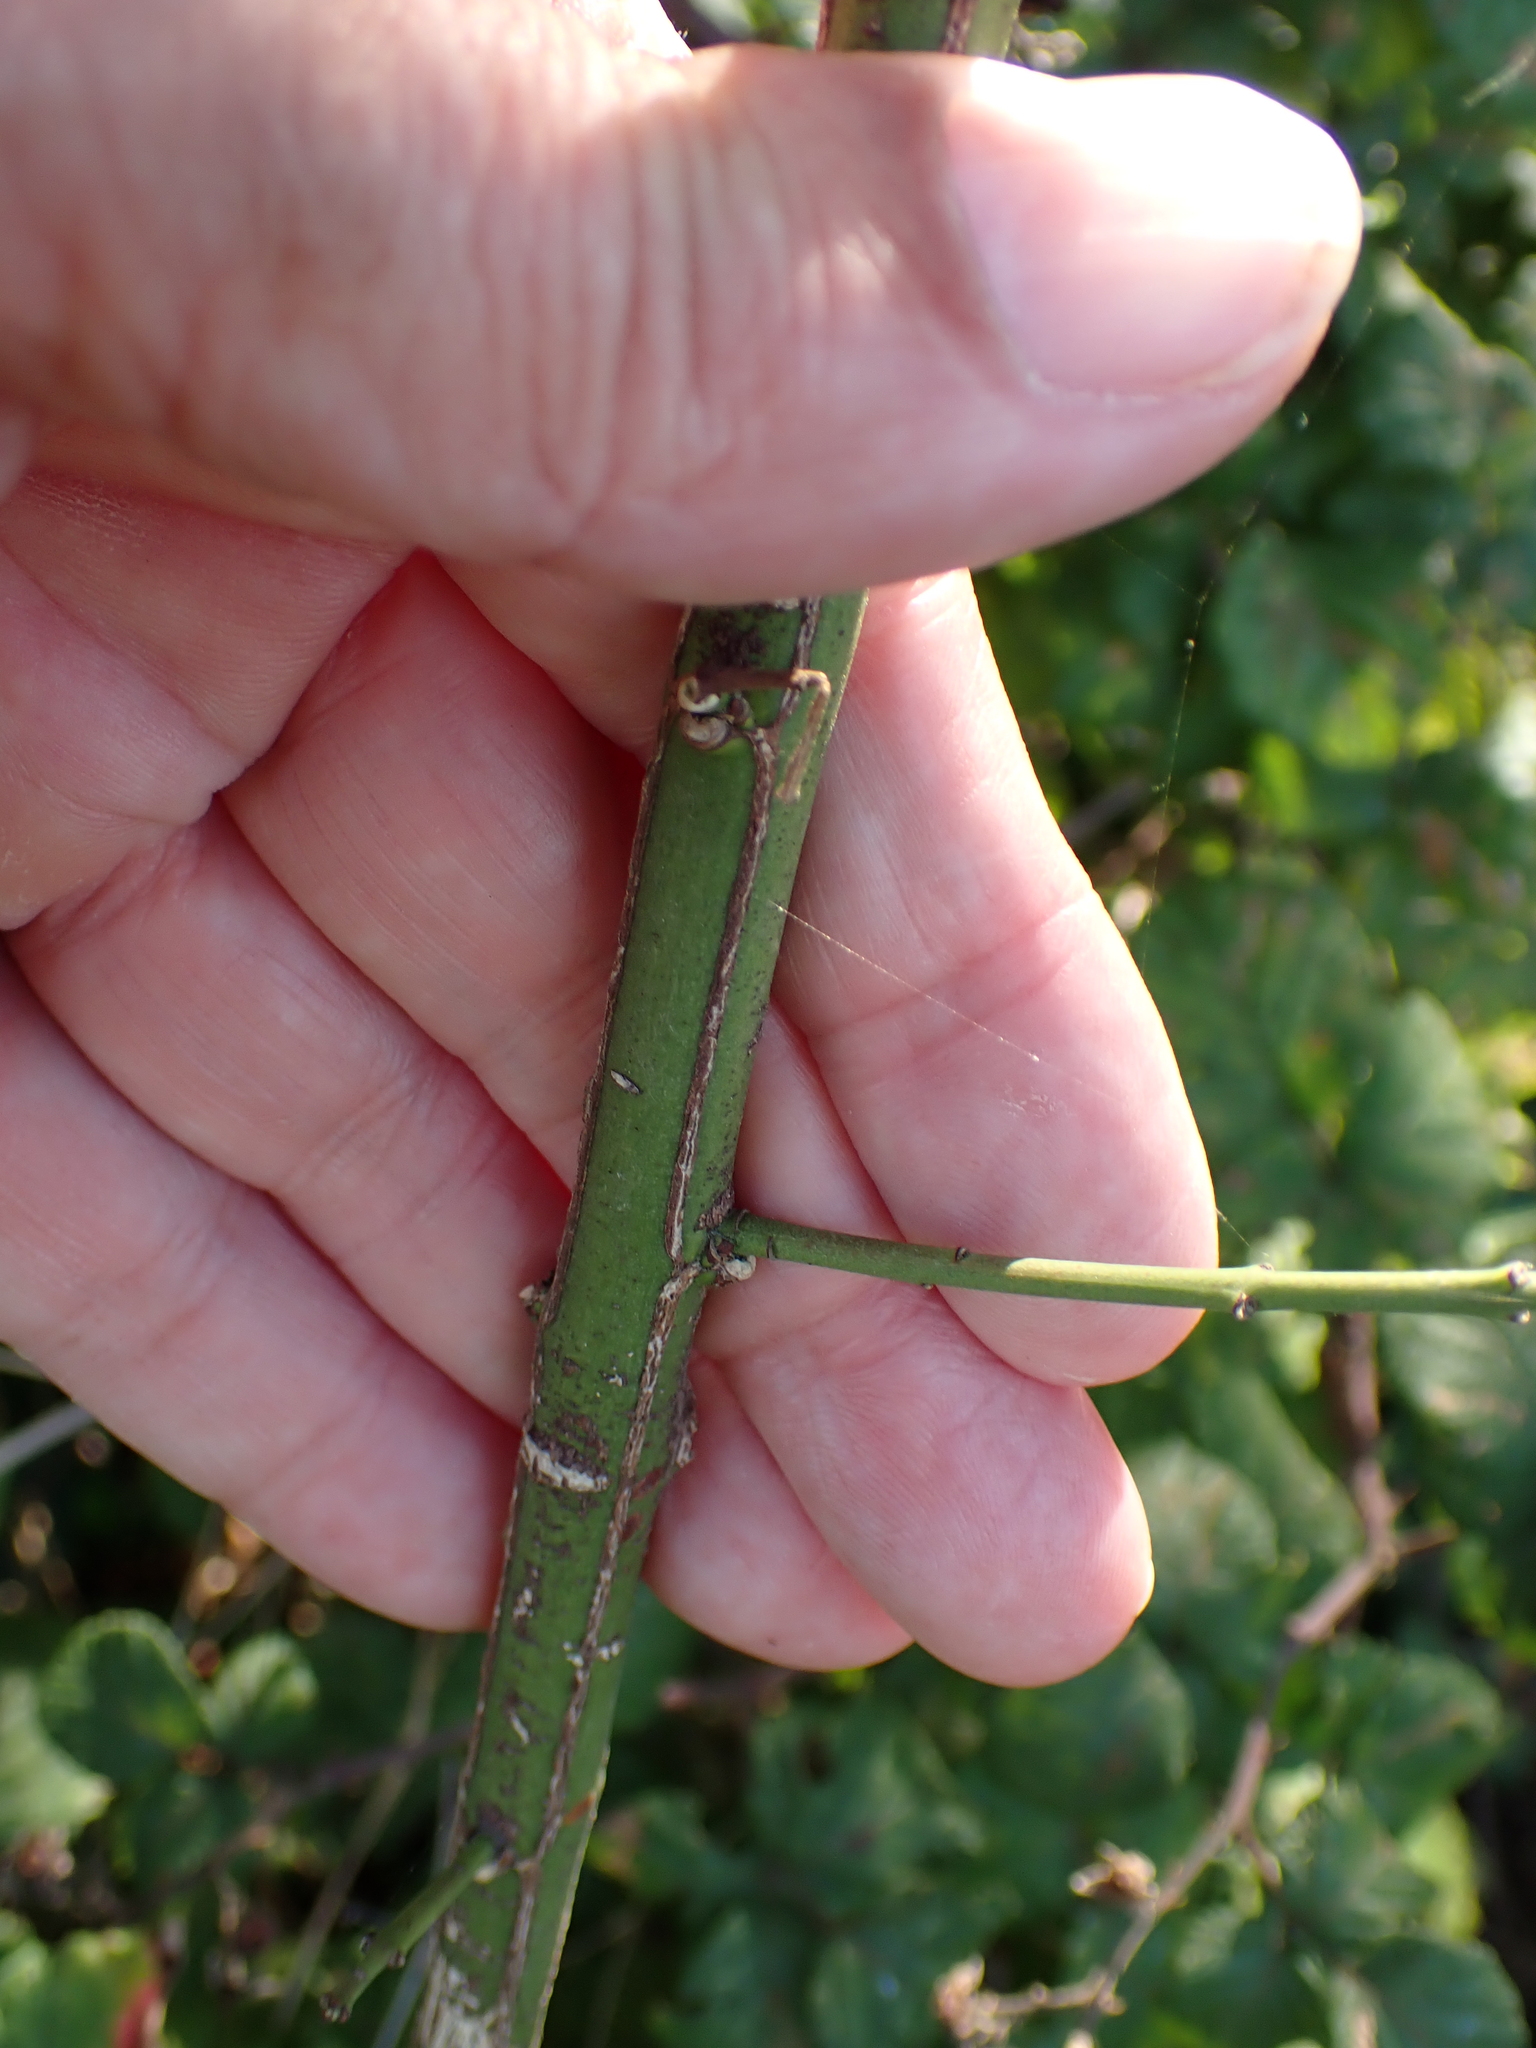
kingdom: Plantae
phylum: Tracheophyta
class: Magnoliopsida
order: Celastrales
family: Celastraceae
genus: Euonymus
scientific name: Euonymus europaeus
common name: Spindle
